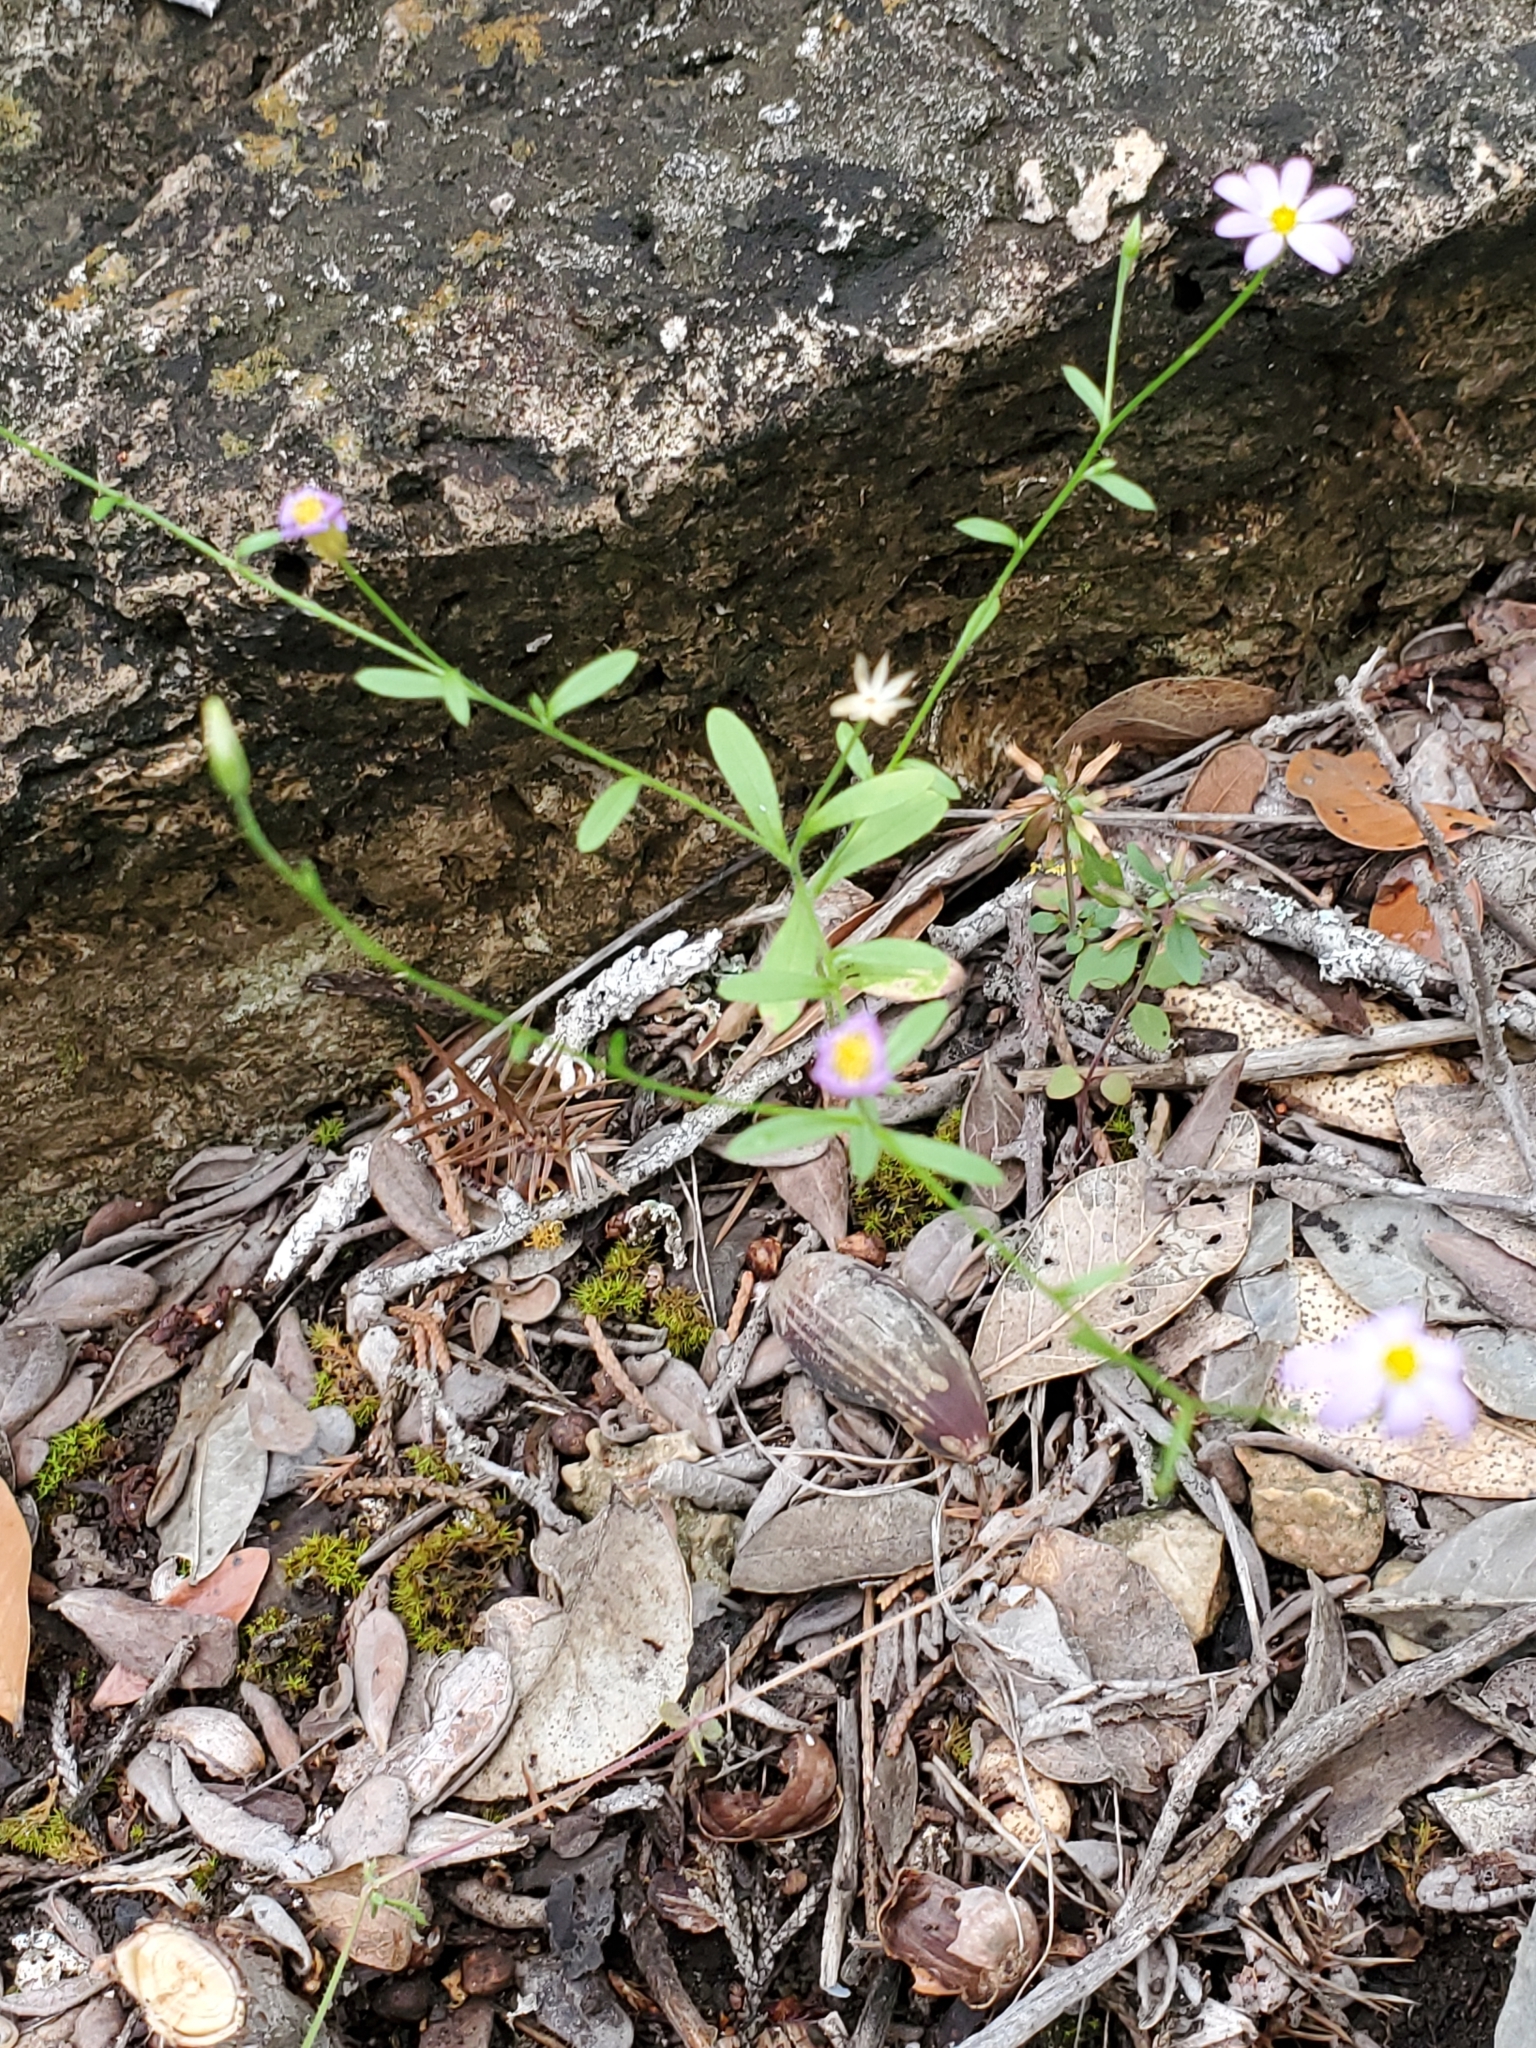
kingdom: Plantae
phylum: Tracheophyta
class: Magnoliopsida
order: Asterales
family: Asteraceae
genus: Chaetopappa
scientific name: Chaetopappa asteroides
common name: Tiny lazy daisy
